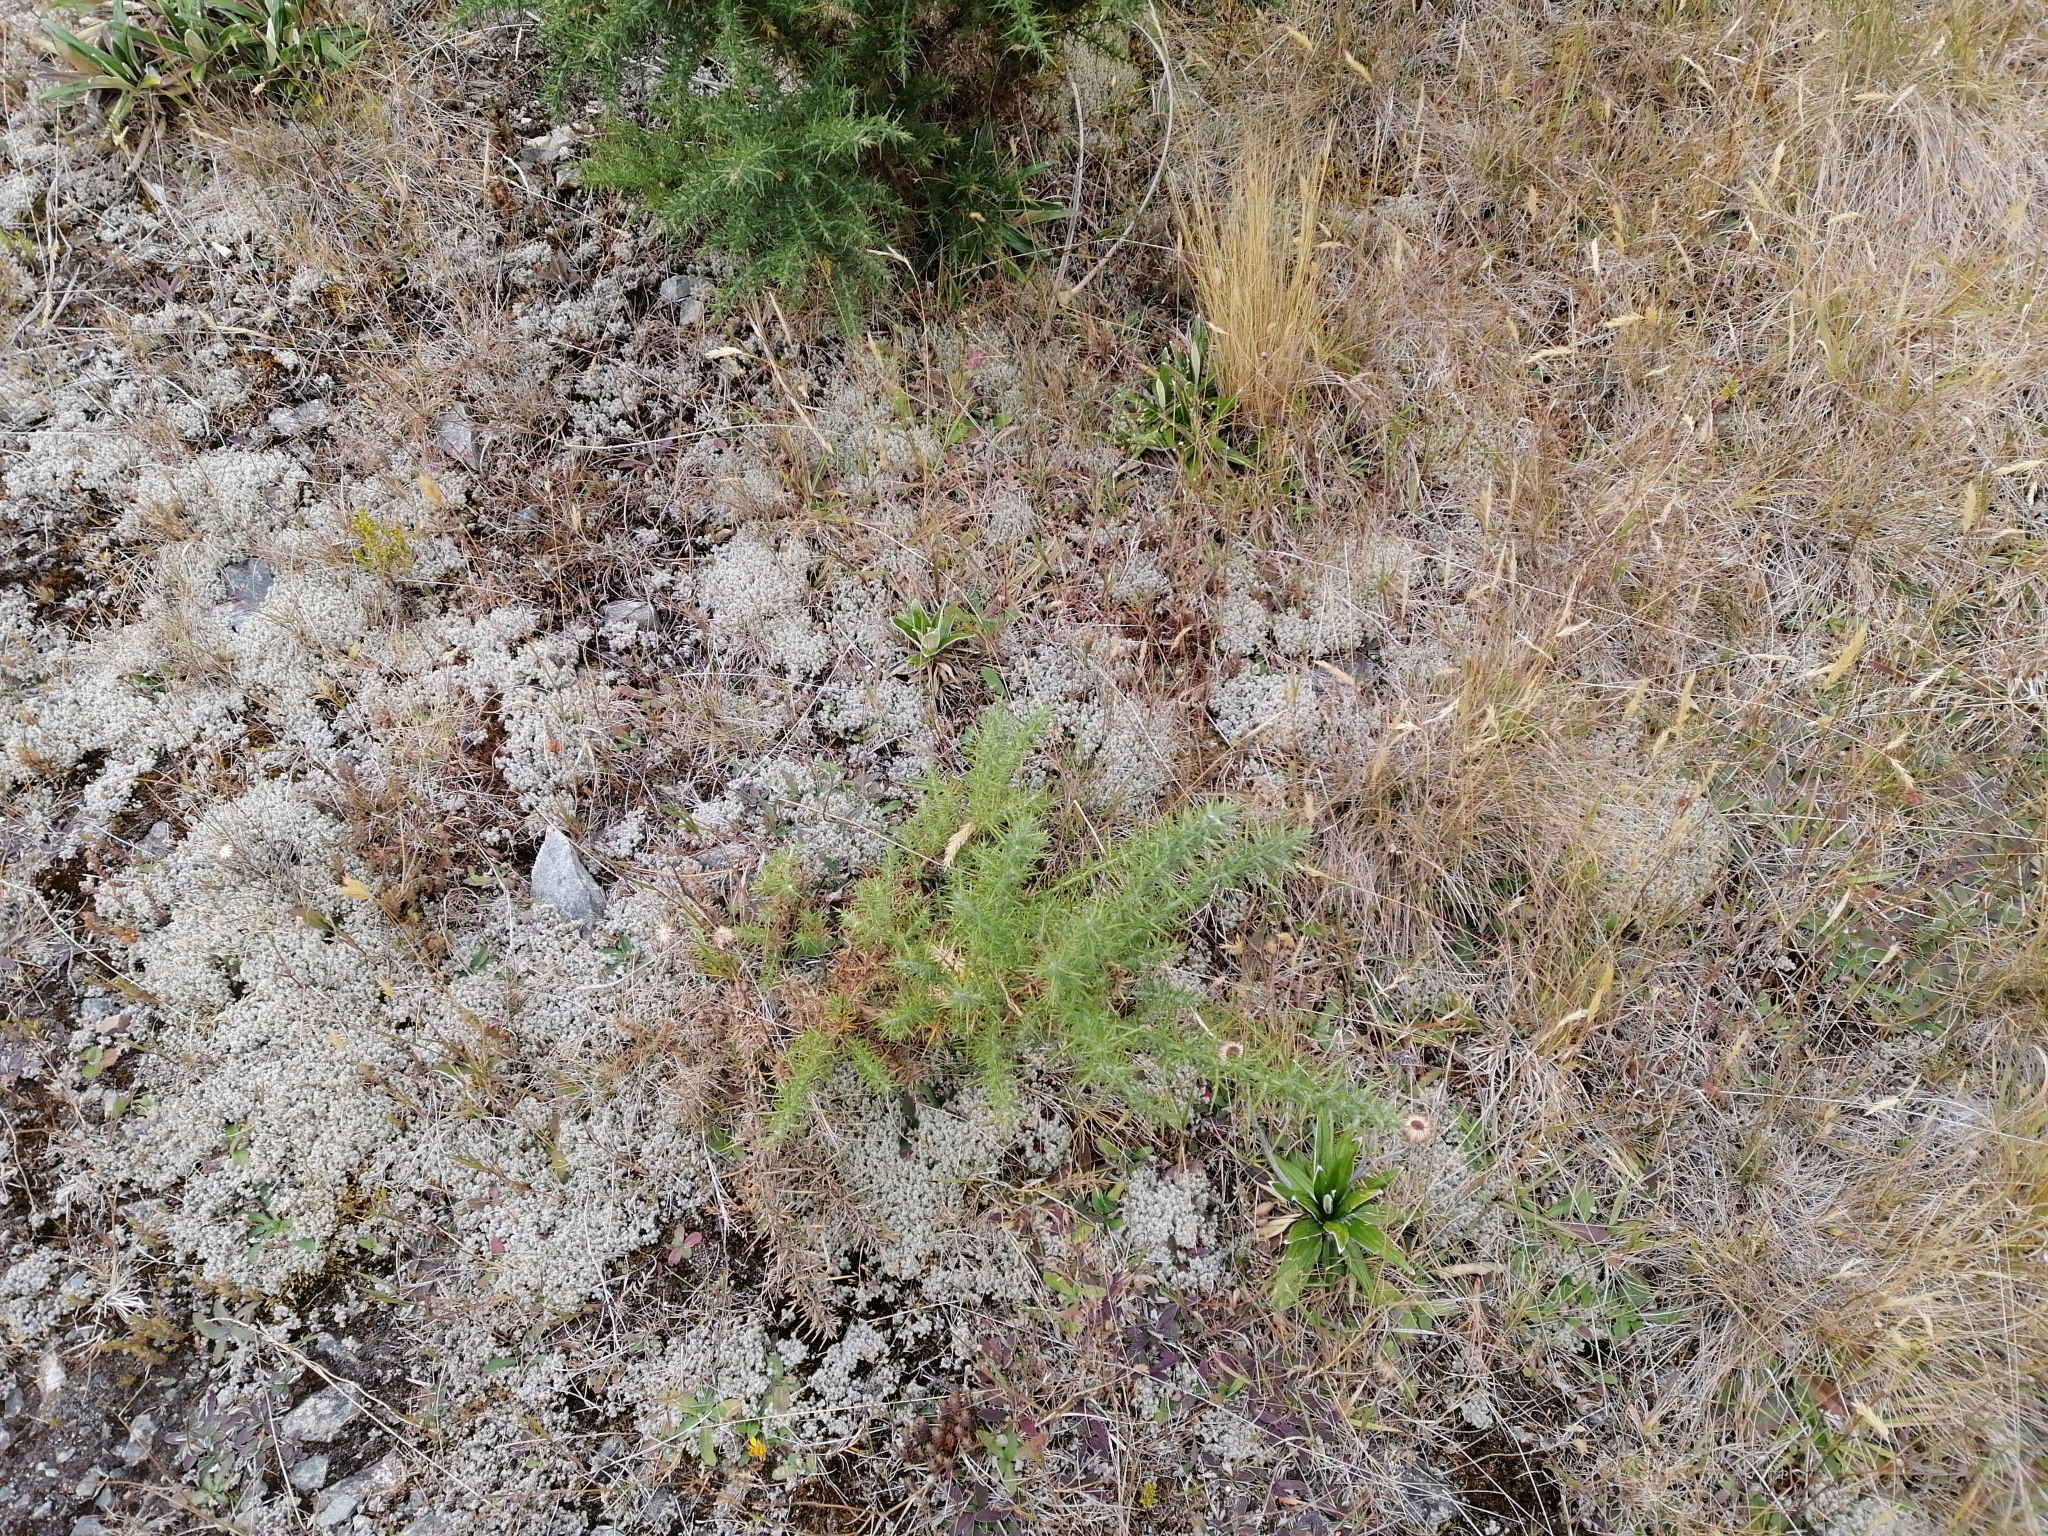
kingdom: Plantae
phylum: Tracheophyta
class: Magnoliopsida
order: Fabales
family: Fabaceae
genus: Ulex
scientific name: Ulex europaeus
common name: Common gorse
